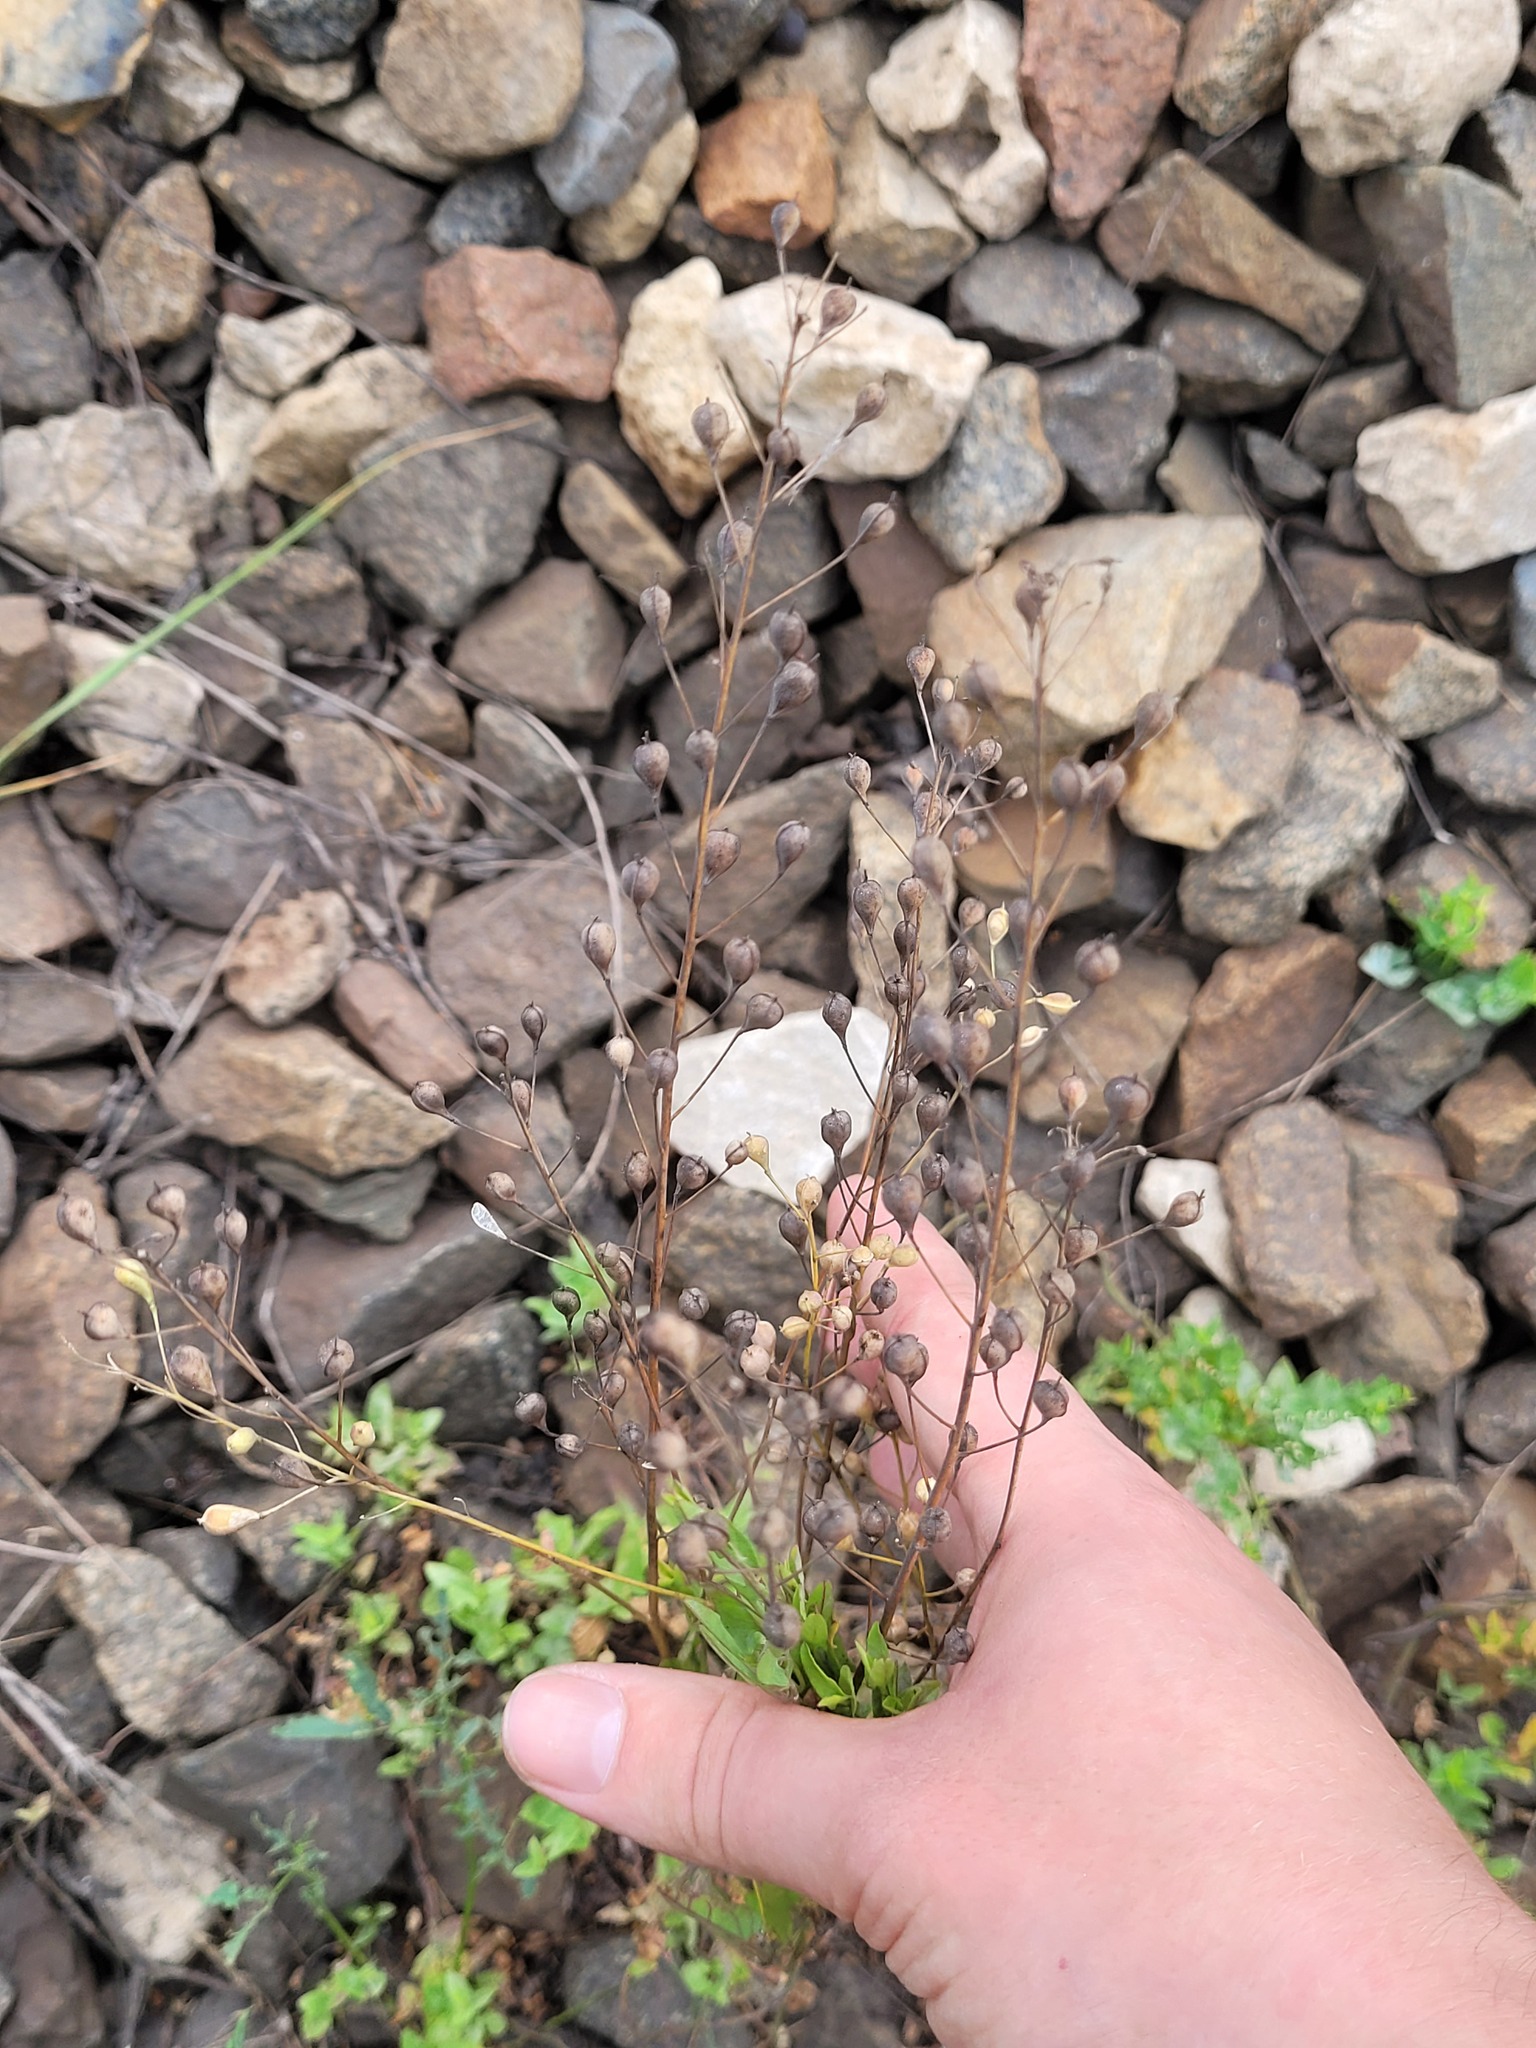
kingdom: Plantae
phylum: Tracheophyta
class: Magnoliopsida
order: Brassicales
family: Brassicaceae
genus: Camelina
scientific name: Camelina sativa
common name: Gold-of-pleasure
